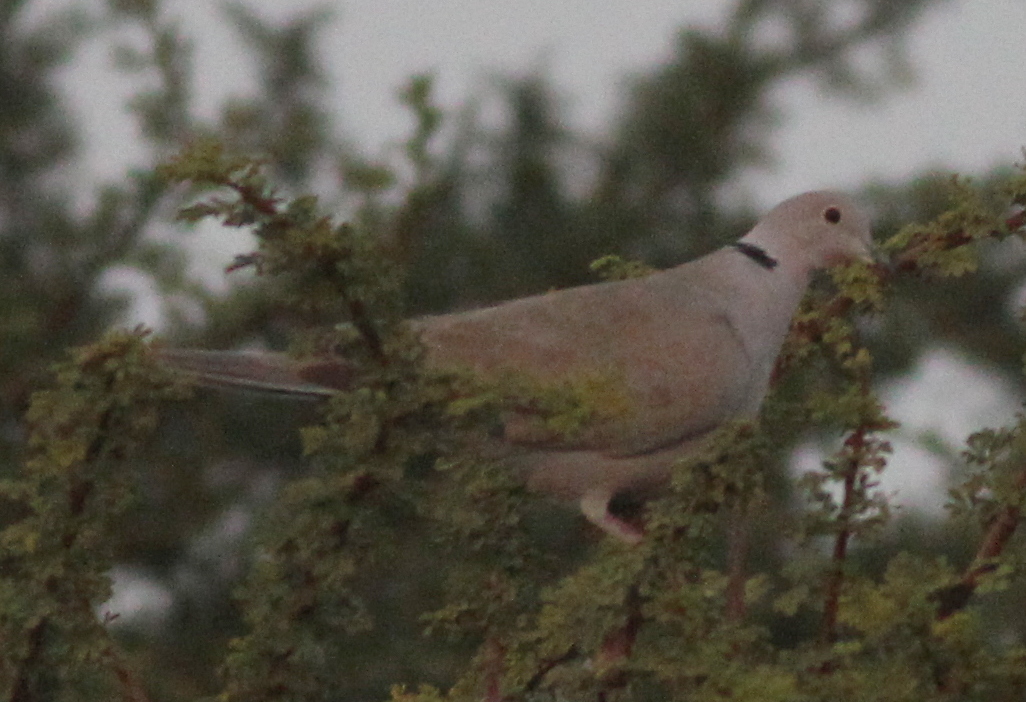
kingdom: Animalia
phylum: Chordata
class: Aves
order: Columbiformes
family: Columbidae
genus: Streptopelia
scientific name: Streptopelia decaocto
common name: Eurasian collared dove
